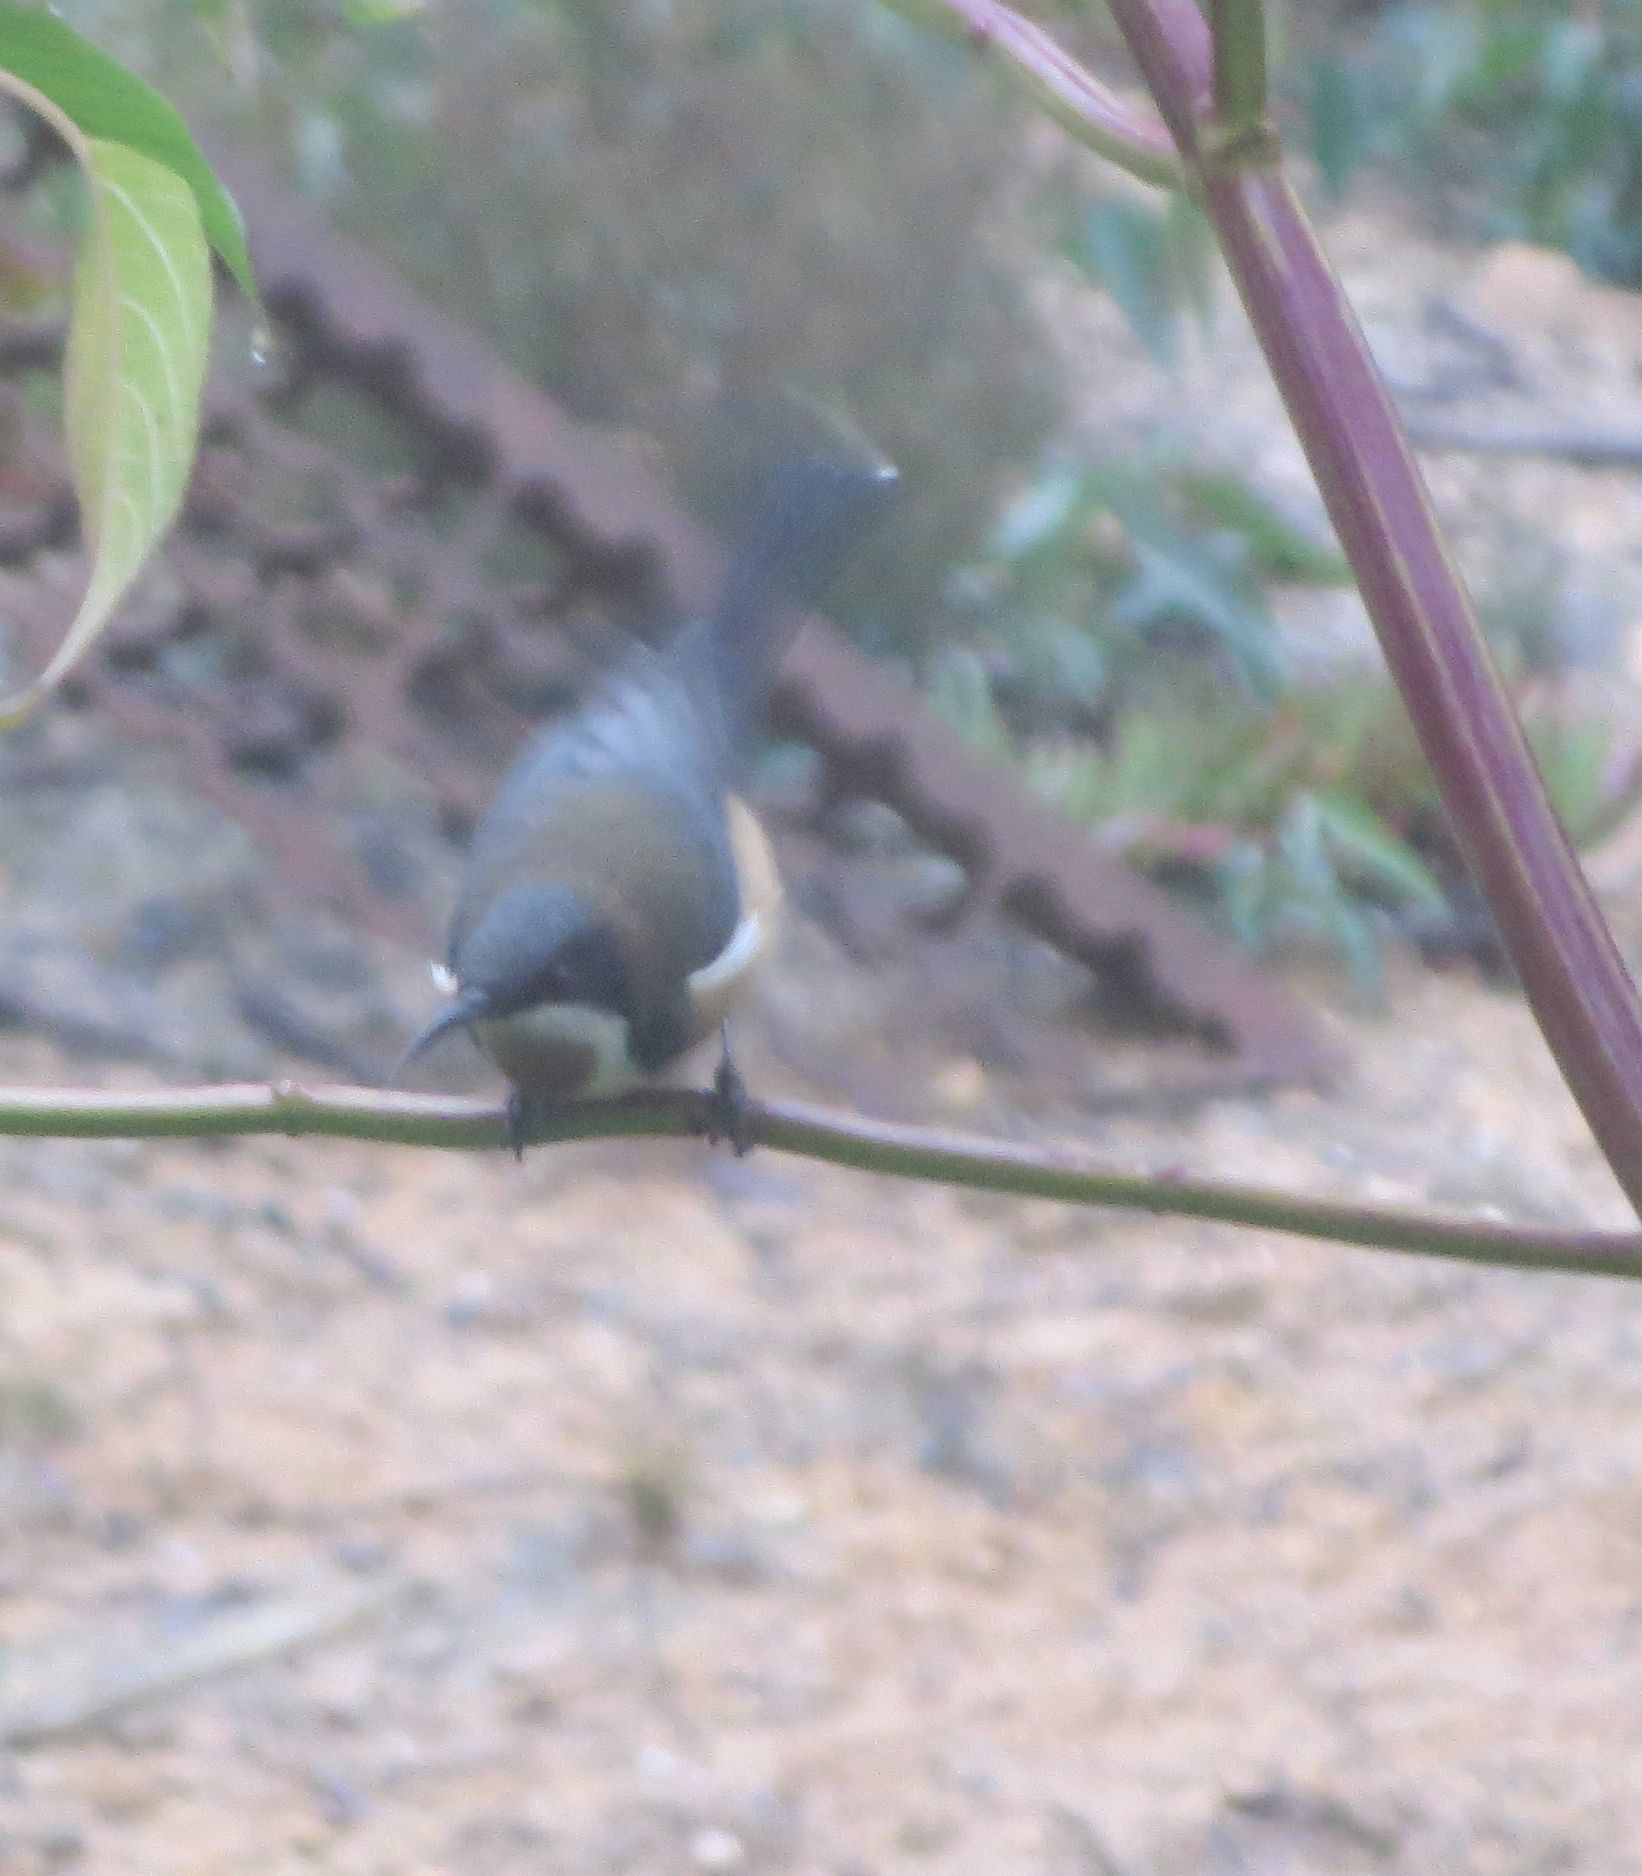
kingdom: Animalia
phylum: Chordata
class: Aves
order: Passeriformes
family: Meliphagidae
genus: Acanthorhynchus
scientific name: Acanthorhynchus tenuirostris
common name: Eastern spinebill
